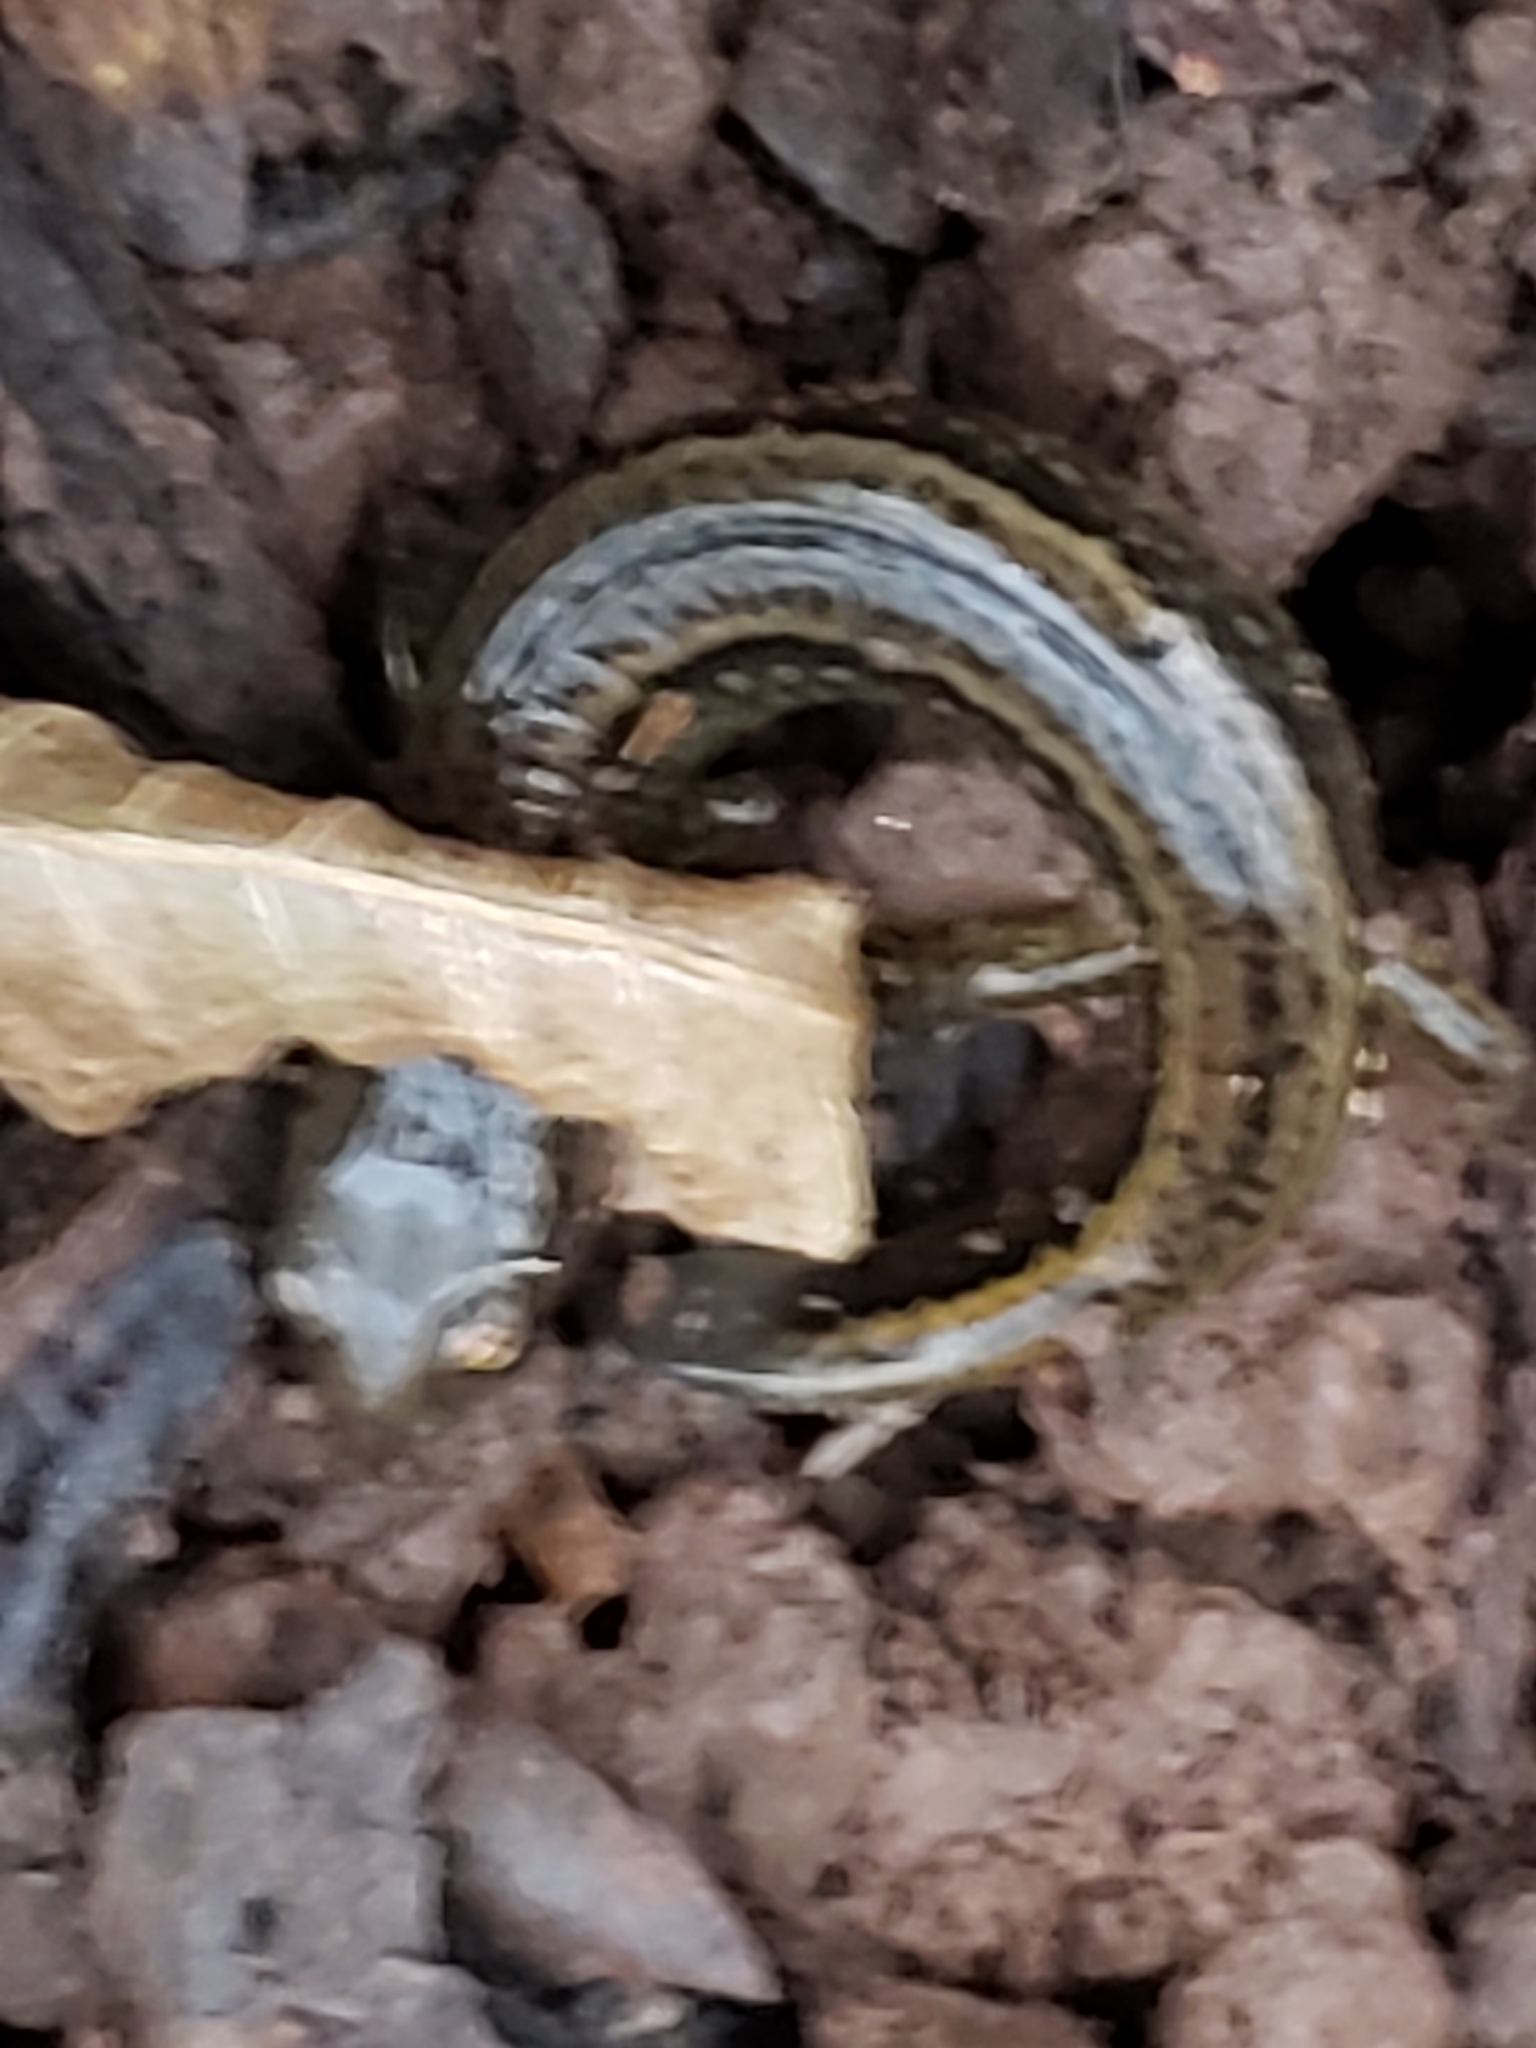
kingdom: Animalia
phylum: Chordata
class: Amphibia
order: Caudata
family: Plethodontidae
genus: Eurycea
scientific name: Eurycea bislineata
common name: Northern two-lined salamander
